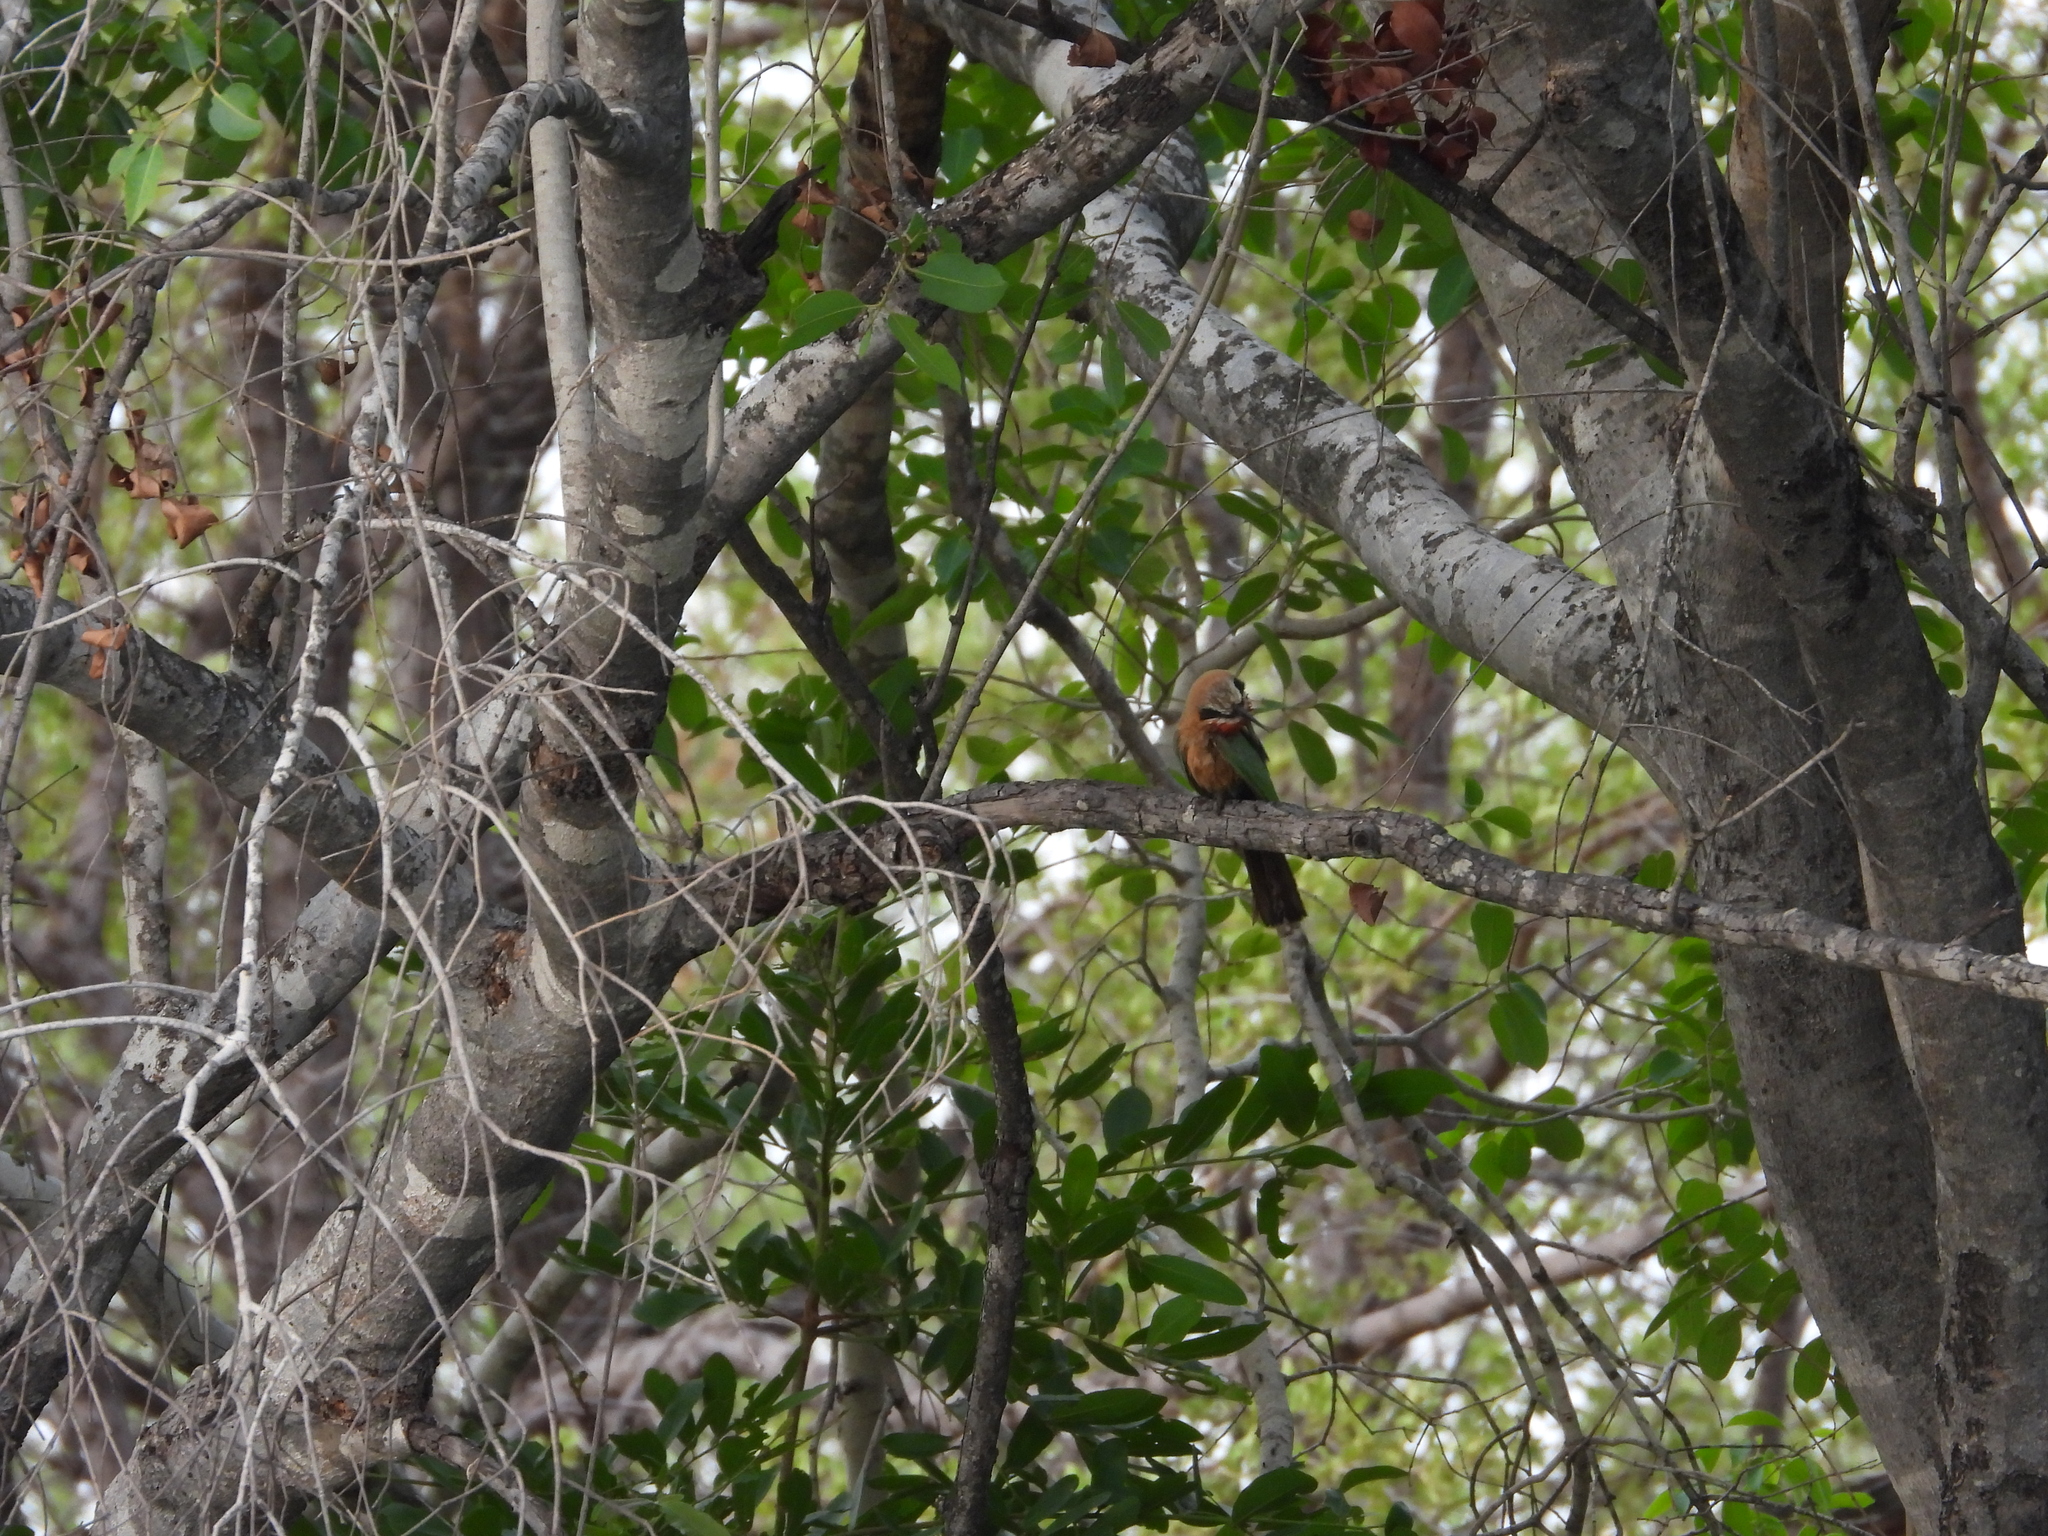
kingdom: Animalia
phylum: Chordata
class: Aves
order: Coraciiformes
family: Meropidae
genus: Merops
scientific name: Merops bullockoides
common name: White-fronted bee-eater
